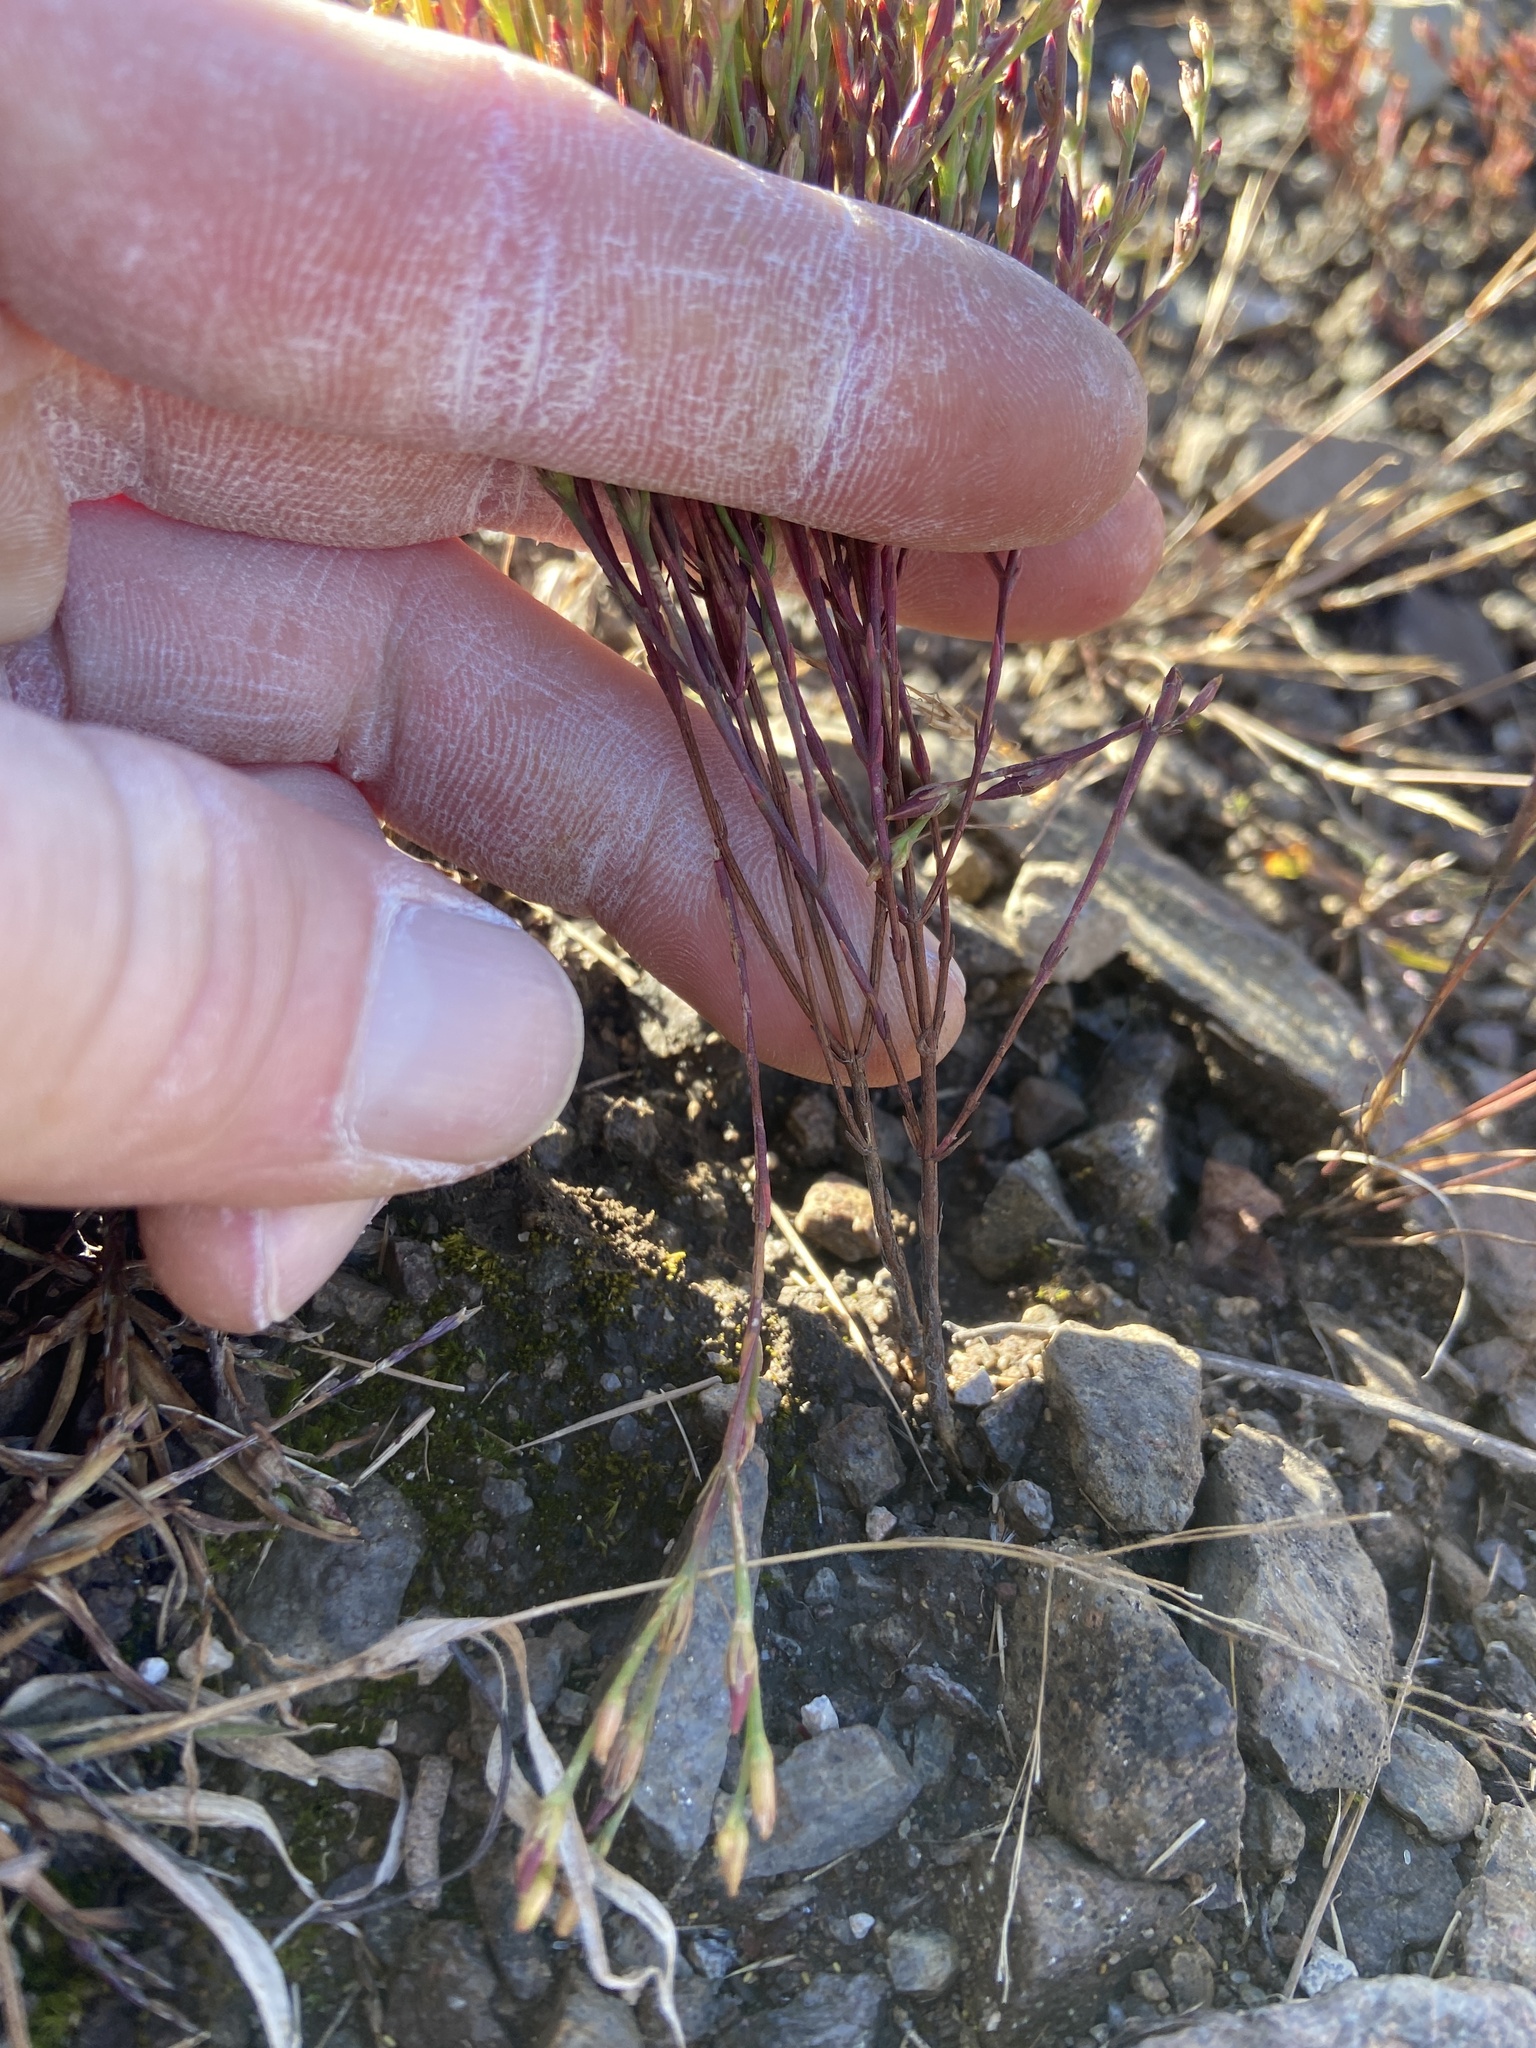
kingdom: Plantae
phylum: Tracheophyta
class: Magnoliopsida
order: Malpighiales
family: Hypericaceae
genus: Hypericum
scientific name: Hypericum gentianoides
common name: Gentian-leaved st. john's-wort
